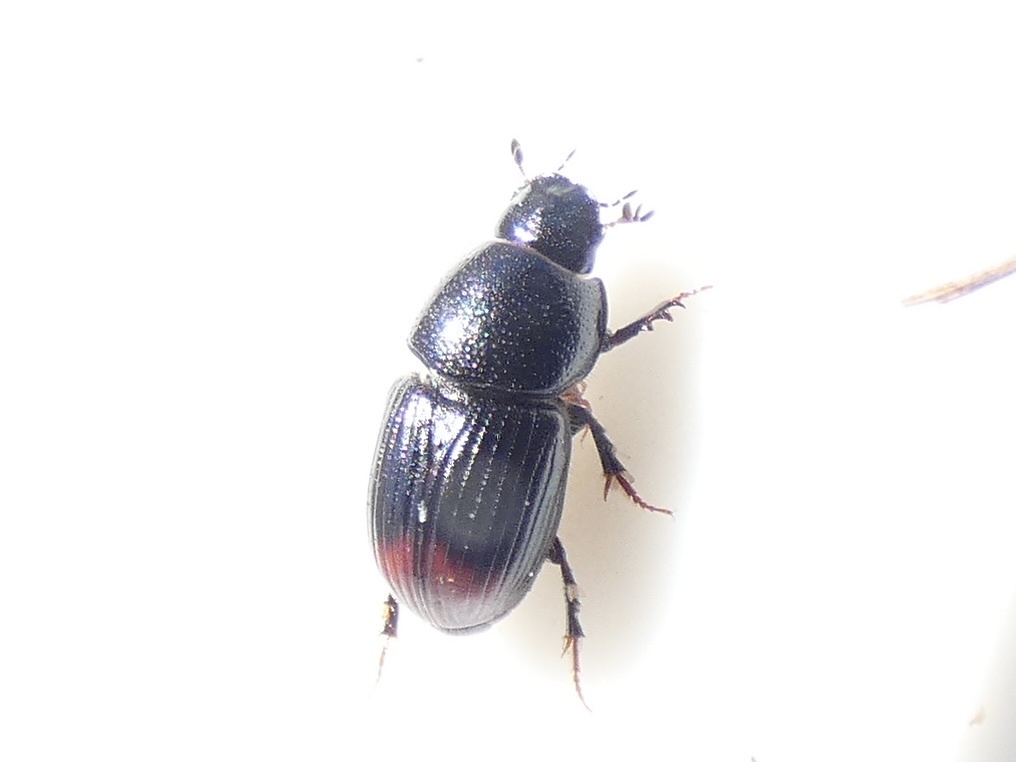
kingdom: Animalia
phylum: Arthropoda
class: Insecta
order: Coleoptera
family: Scarabaeidae
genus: Otophorus
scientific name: Otophorus haemorrhoidalis
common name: Bloody small dung beetle
